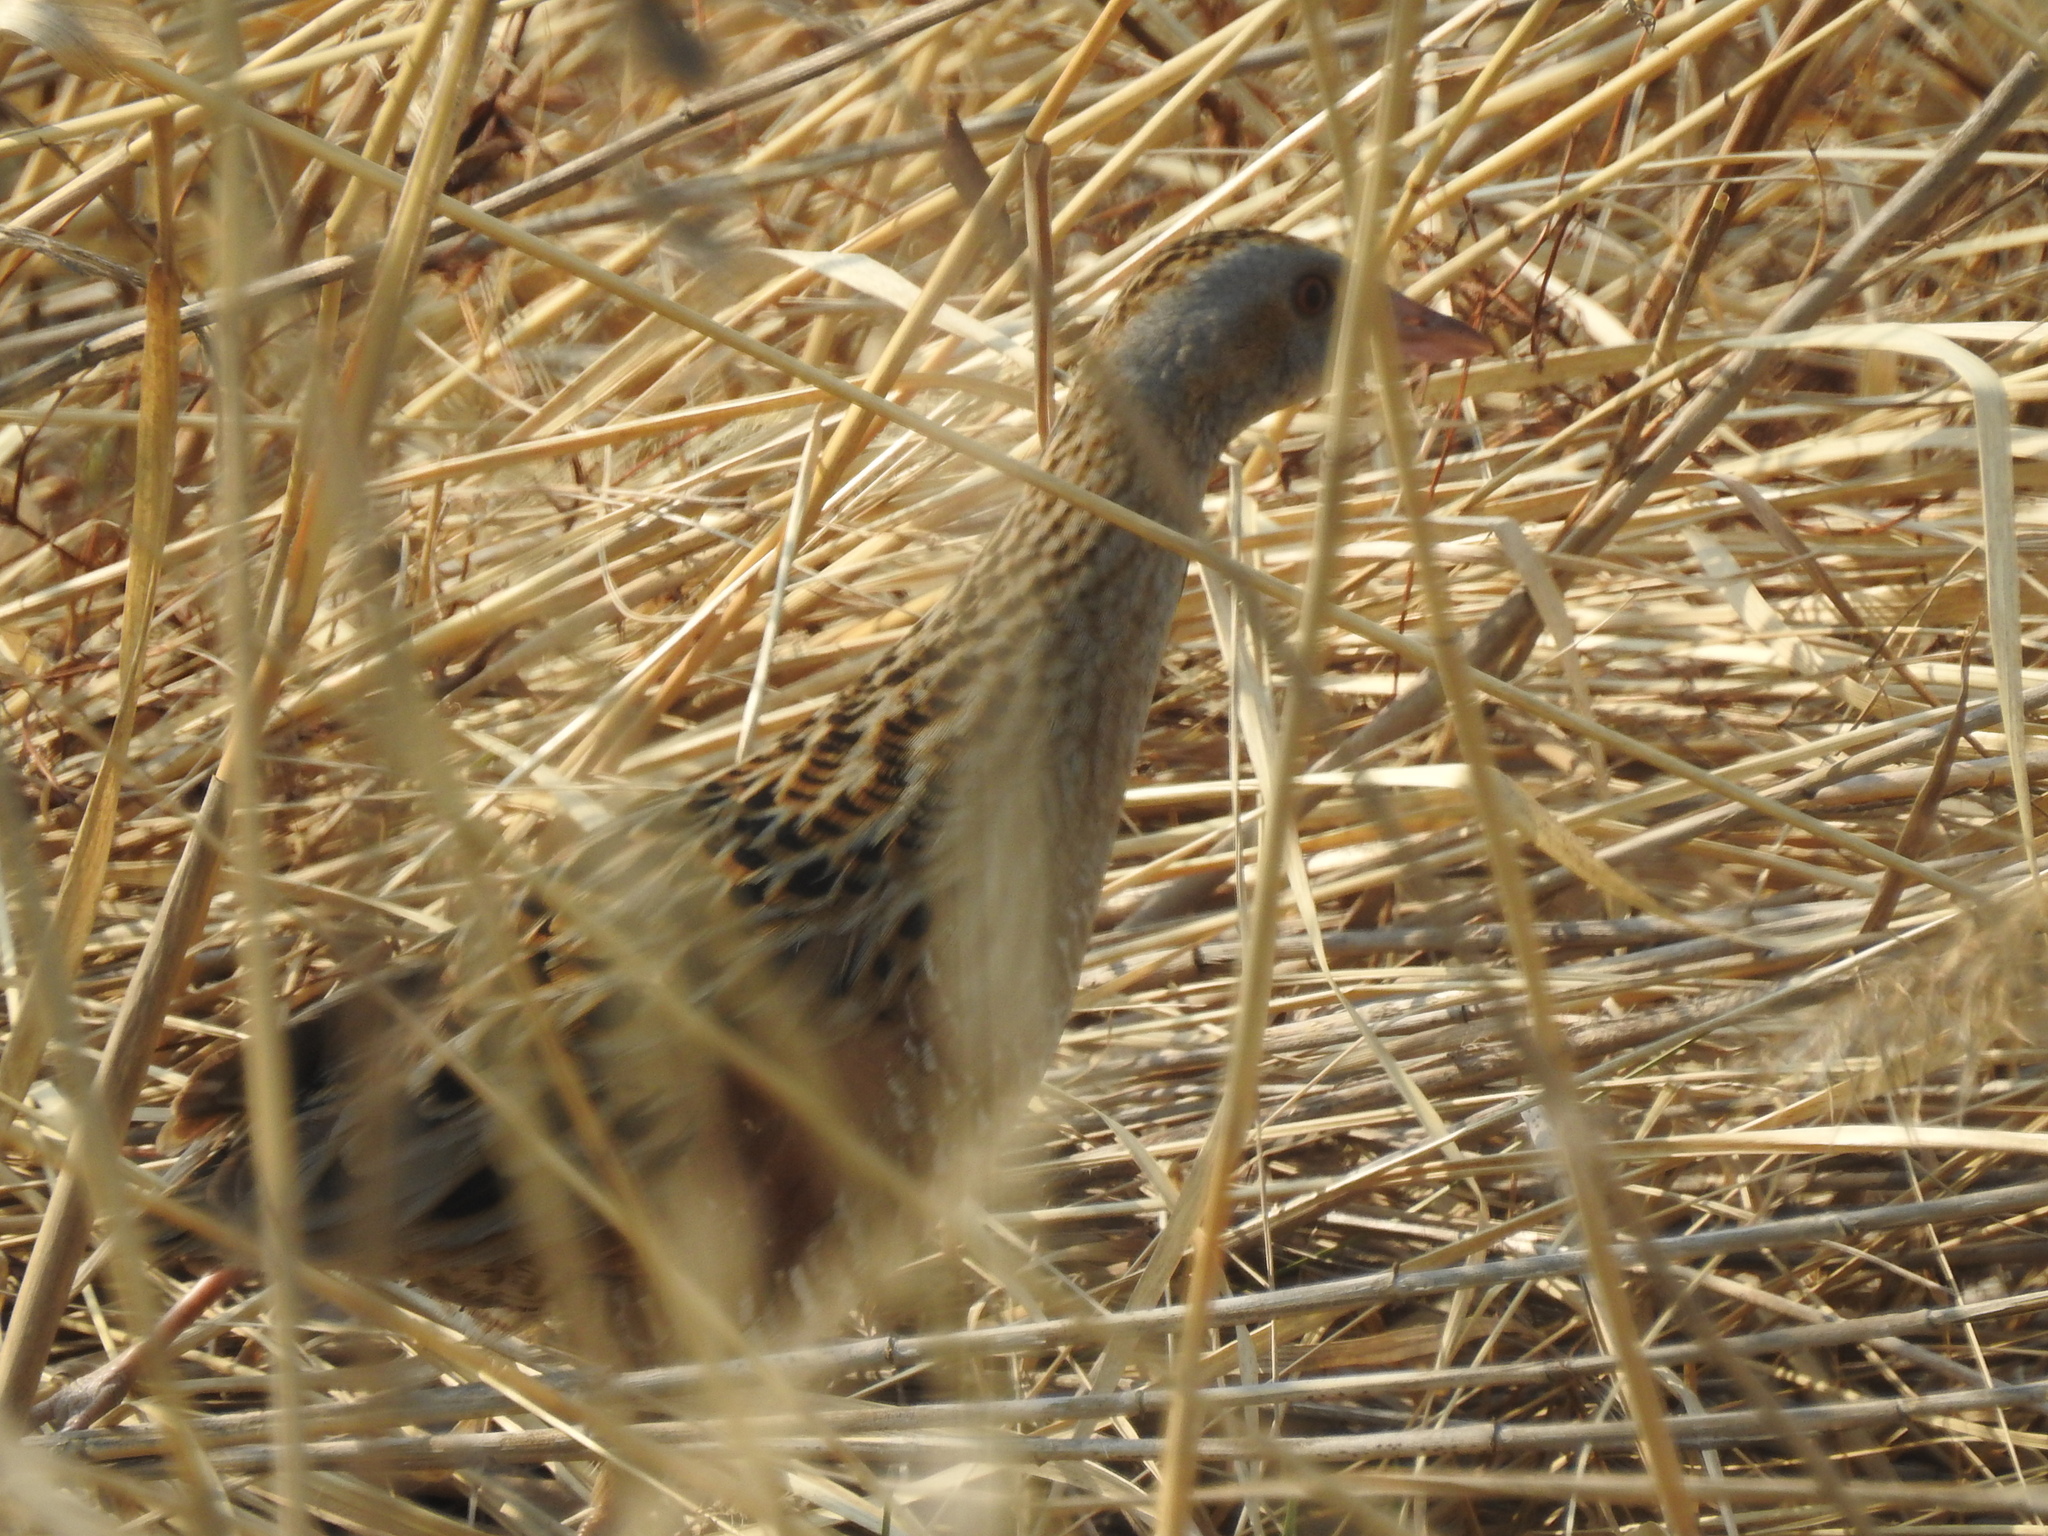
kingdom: Animalia
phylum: Chordata
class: Aves
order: Gruiformes
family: Rallidae
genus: Crex
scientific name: Crex crex
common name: Corn crake
